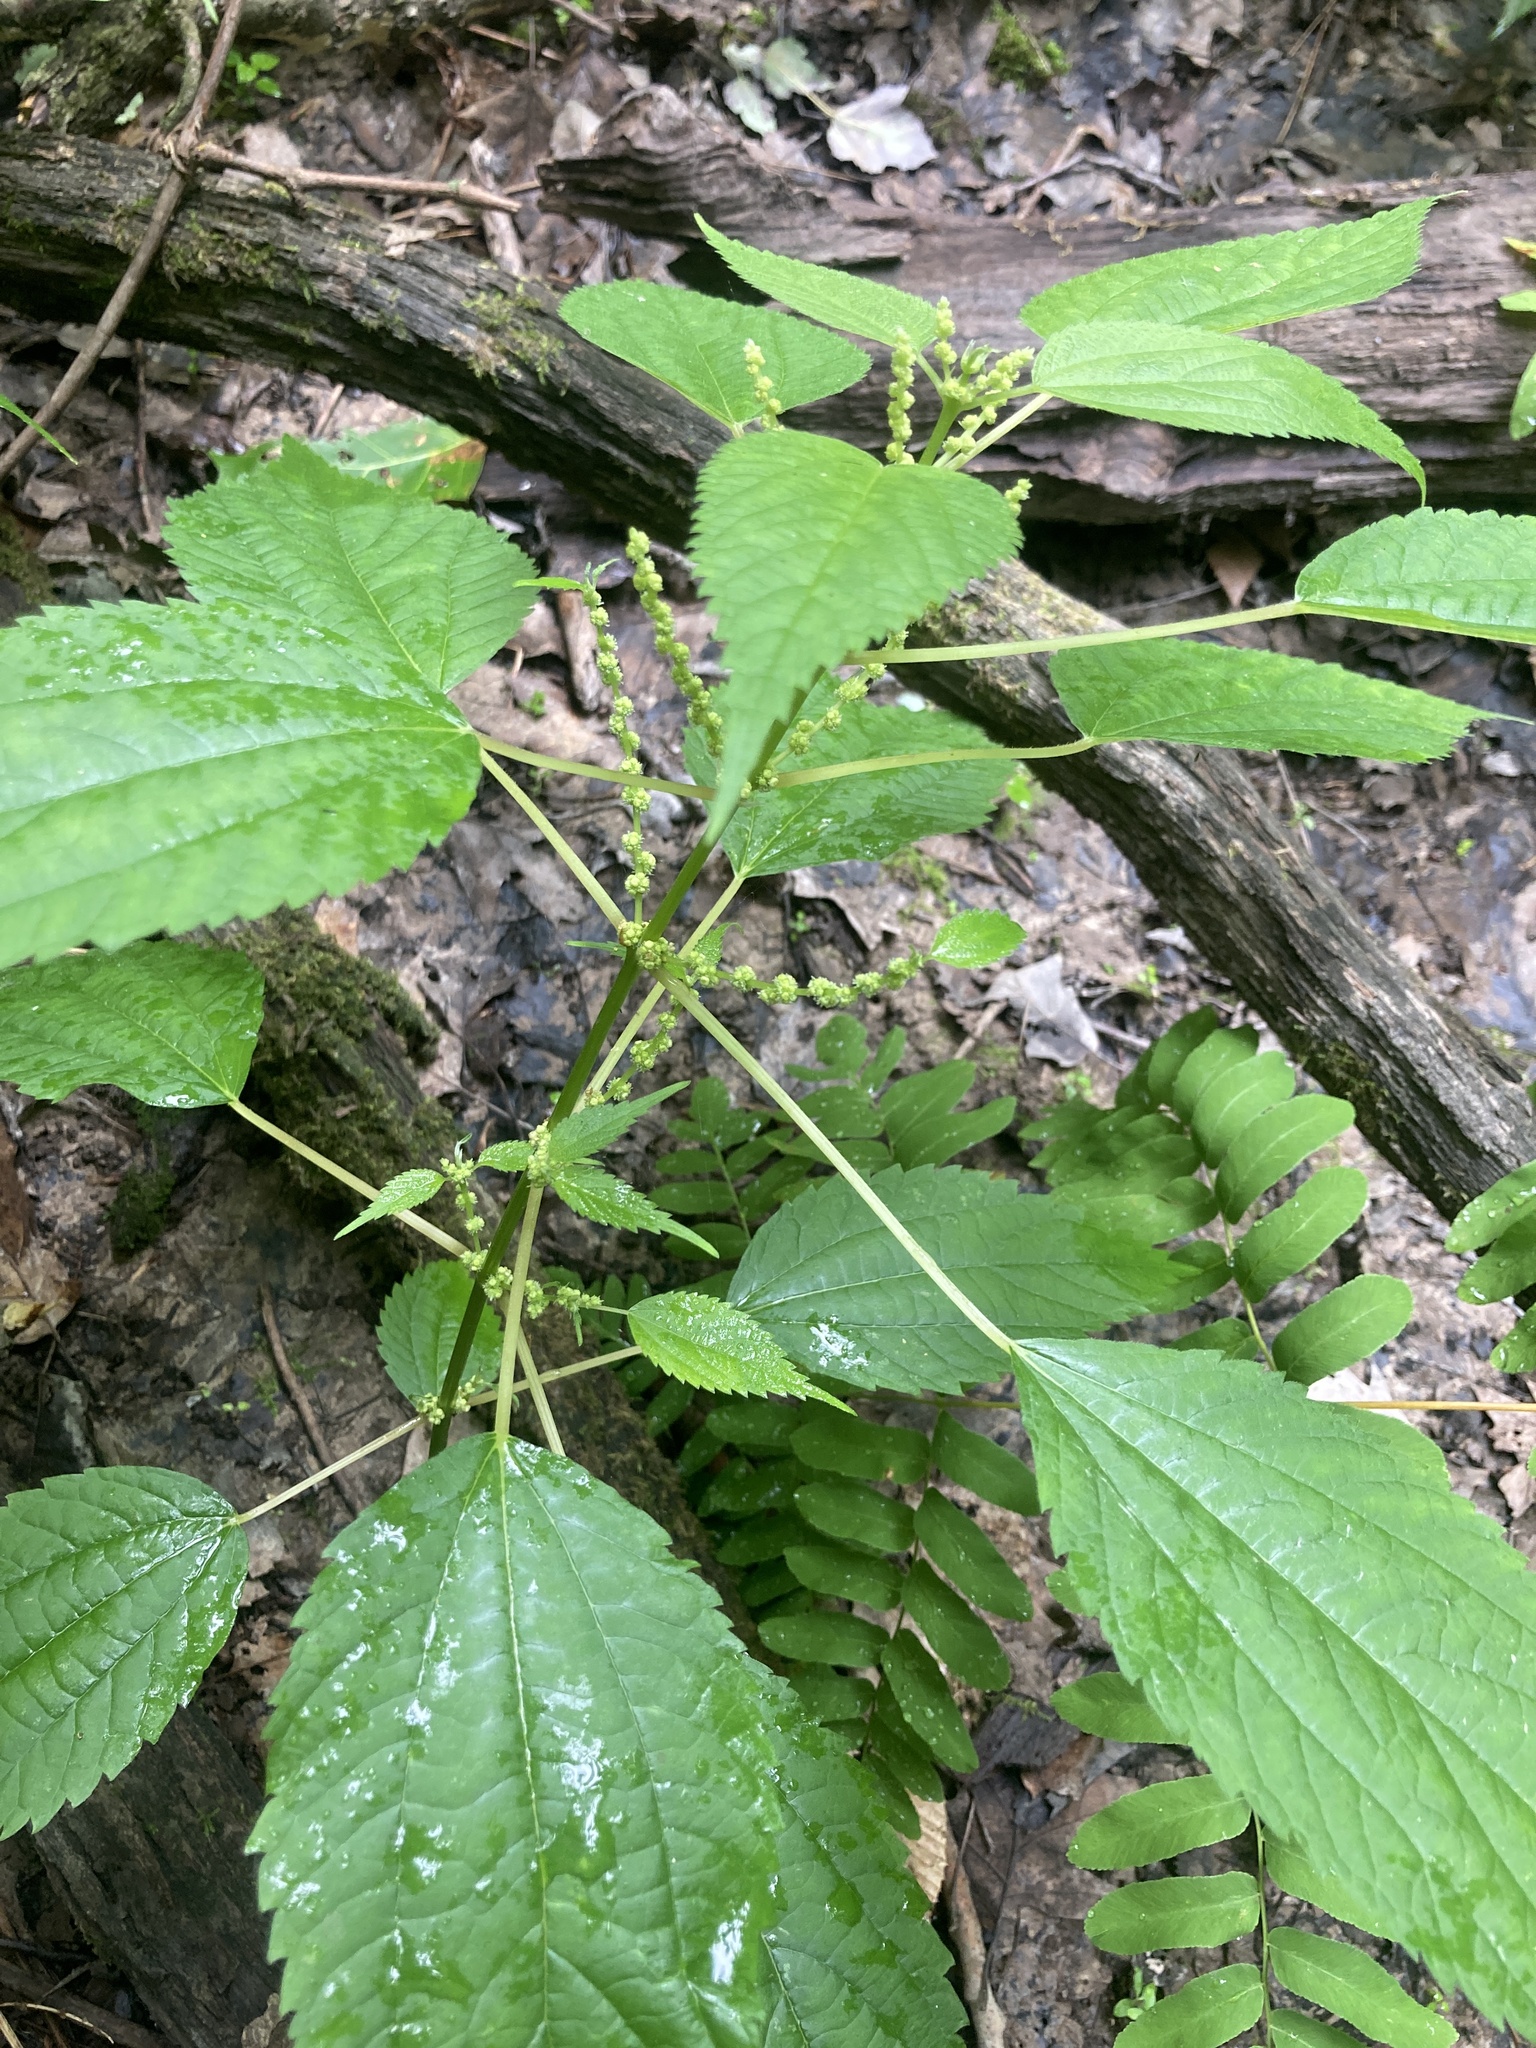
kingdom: Plantae
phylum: Tracheophyta
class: Magnoliopsida
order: Rosales
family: Urticaceae
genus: Boehmeria
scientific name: Boehmeria cylindrica
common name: Bog-hemp
